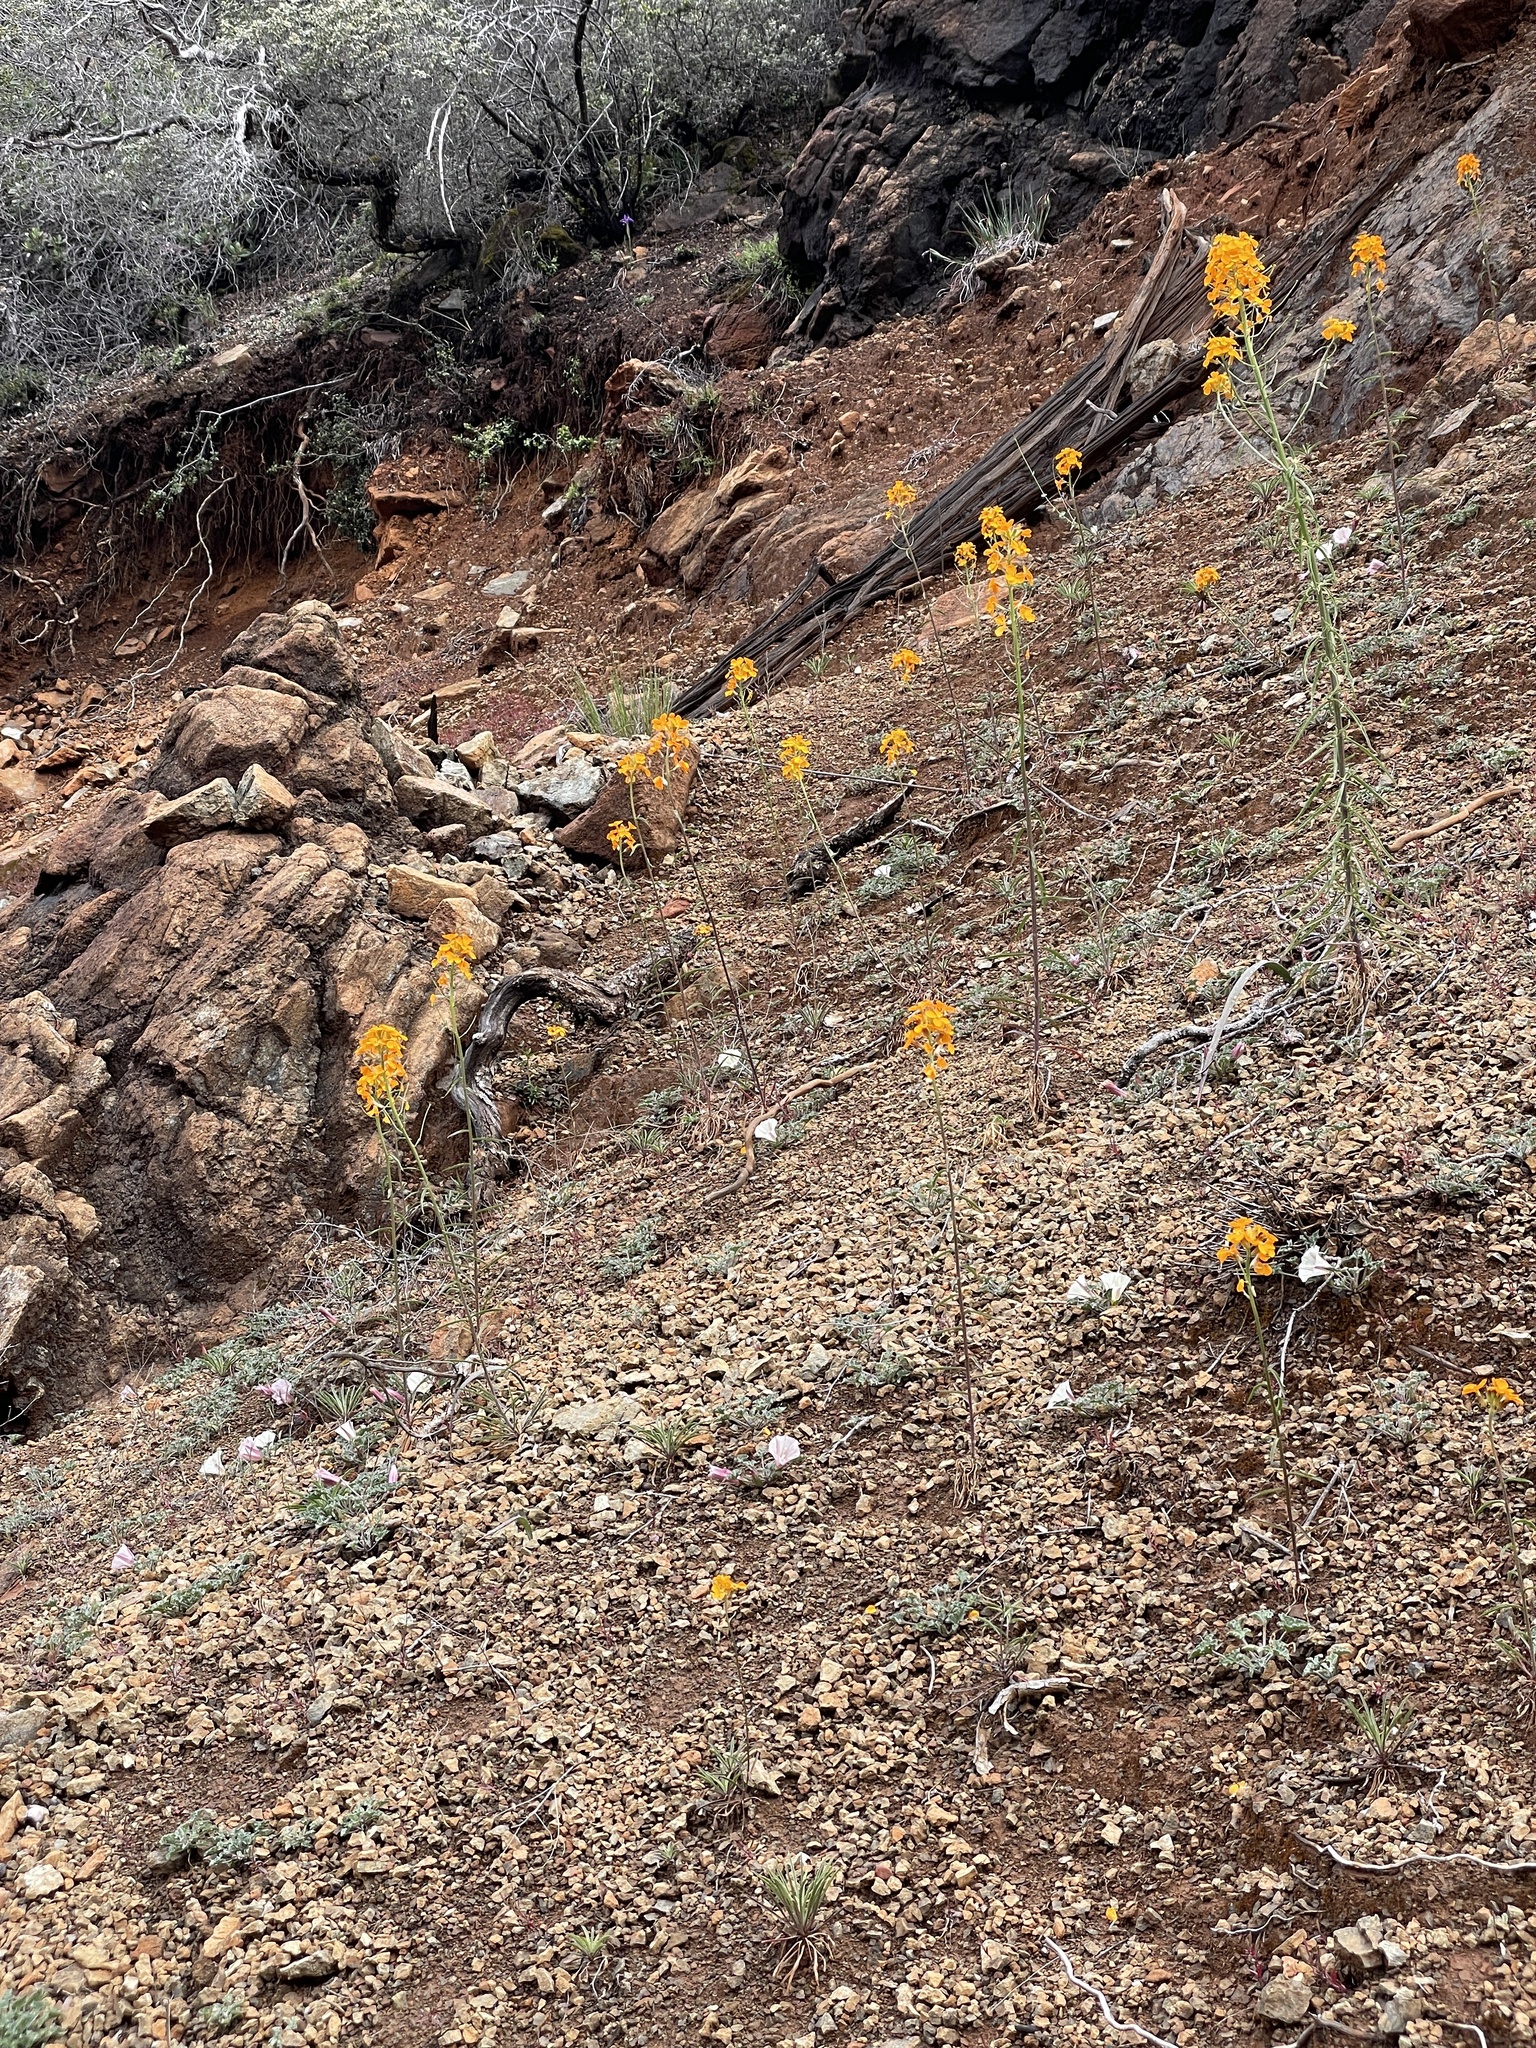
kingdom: Plantae
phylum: Tracheophyta
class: Magnoliopsida
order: Brassicales
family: Brassicaceae
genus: Erysimum
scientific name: Erysimum capitatum
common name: Western wallflower
